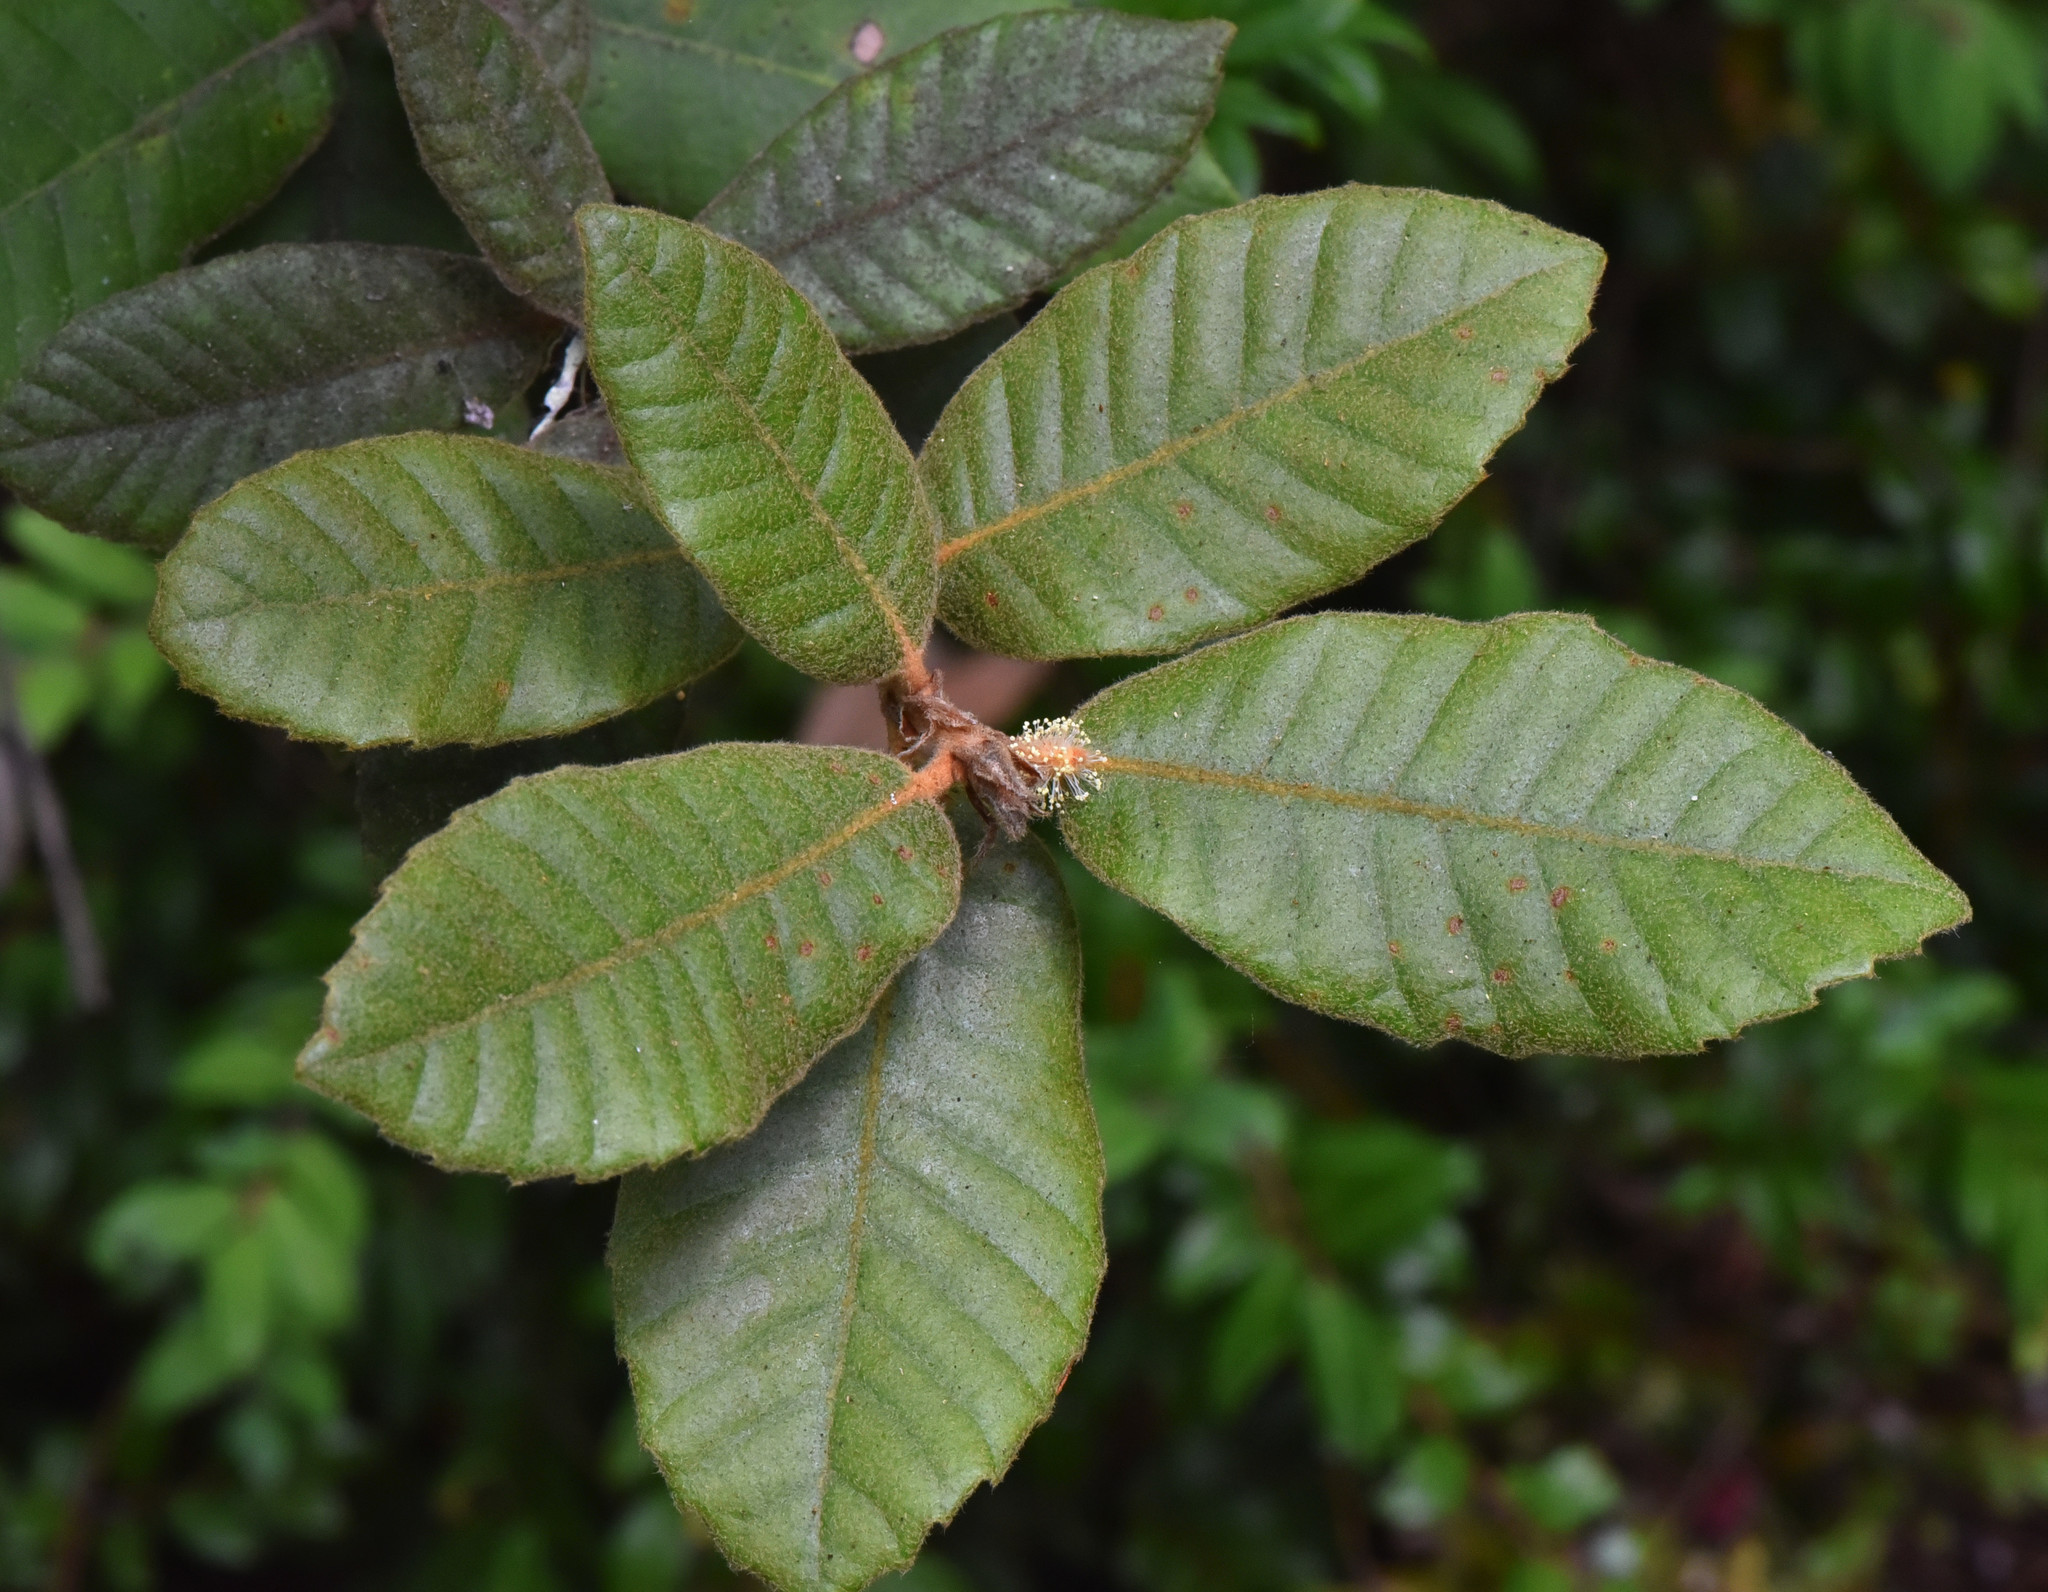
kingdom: Plantae
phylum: Tracheophyta
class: Magnoliopsida
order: Fagales
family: Fagaceae
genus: Notholithocarpus
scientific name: Notholithocarpus densiflorus
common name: Tan bark oak
